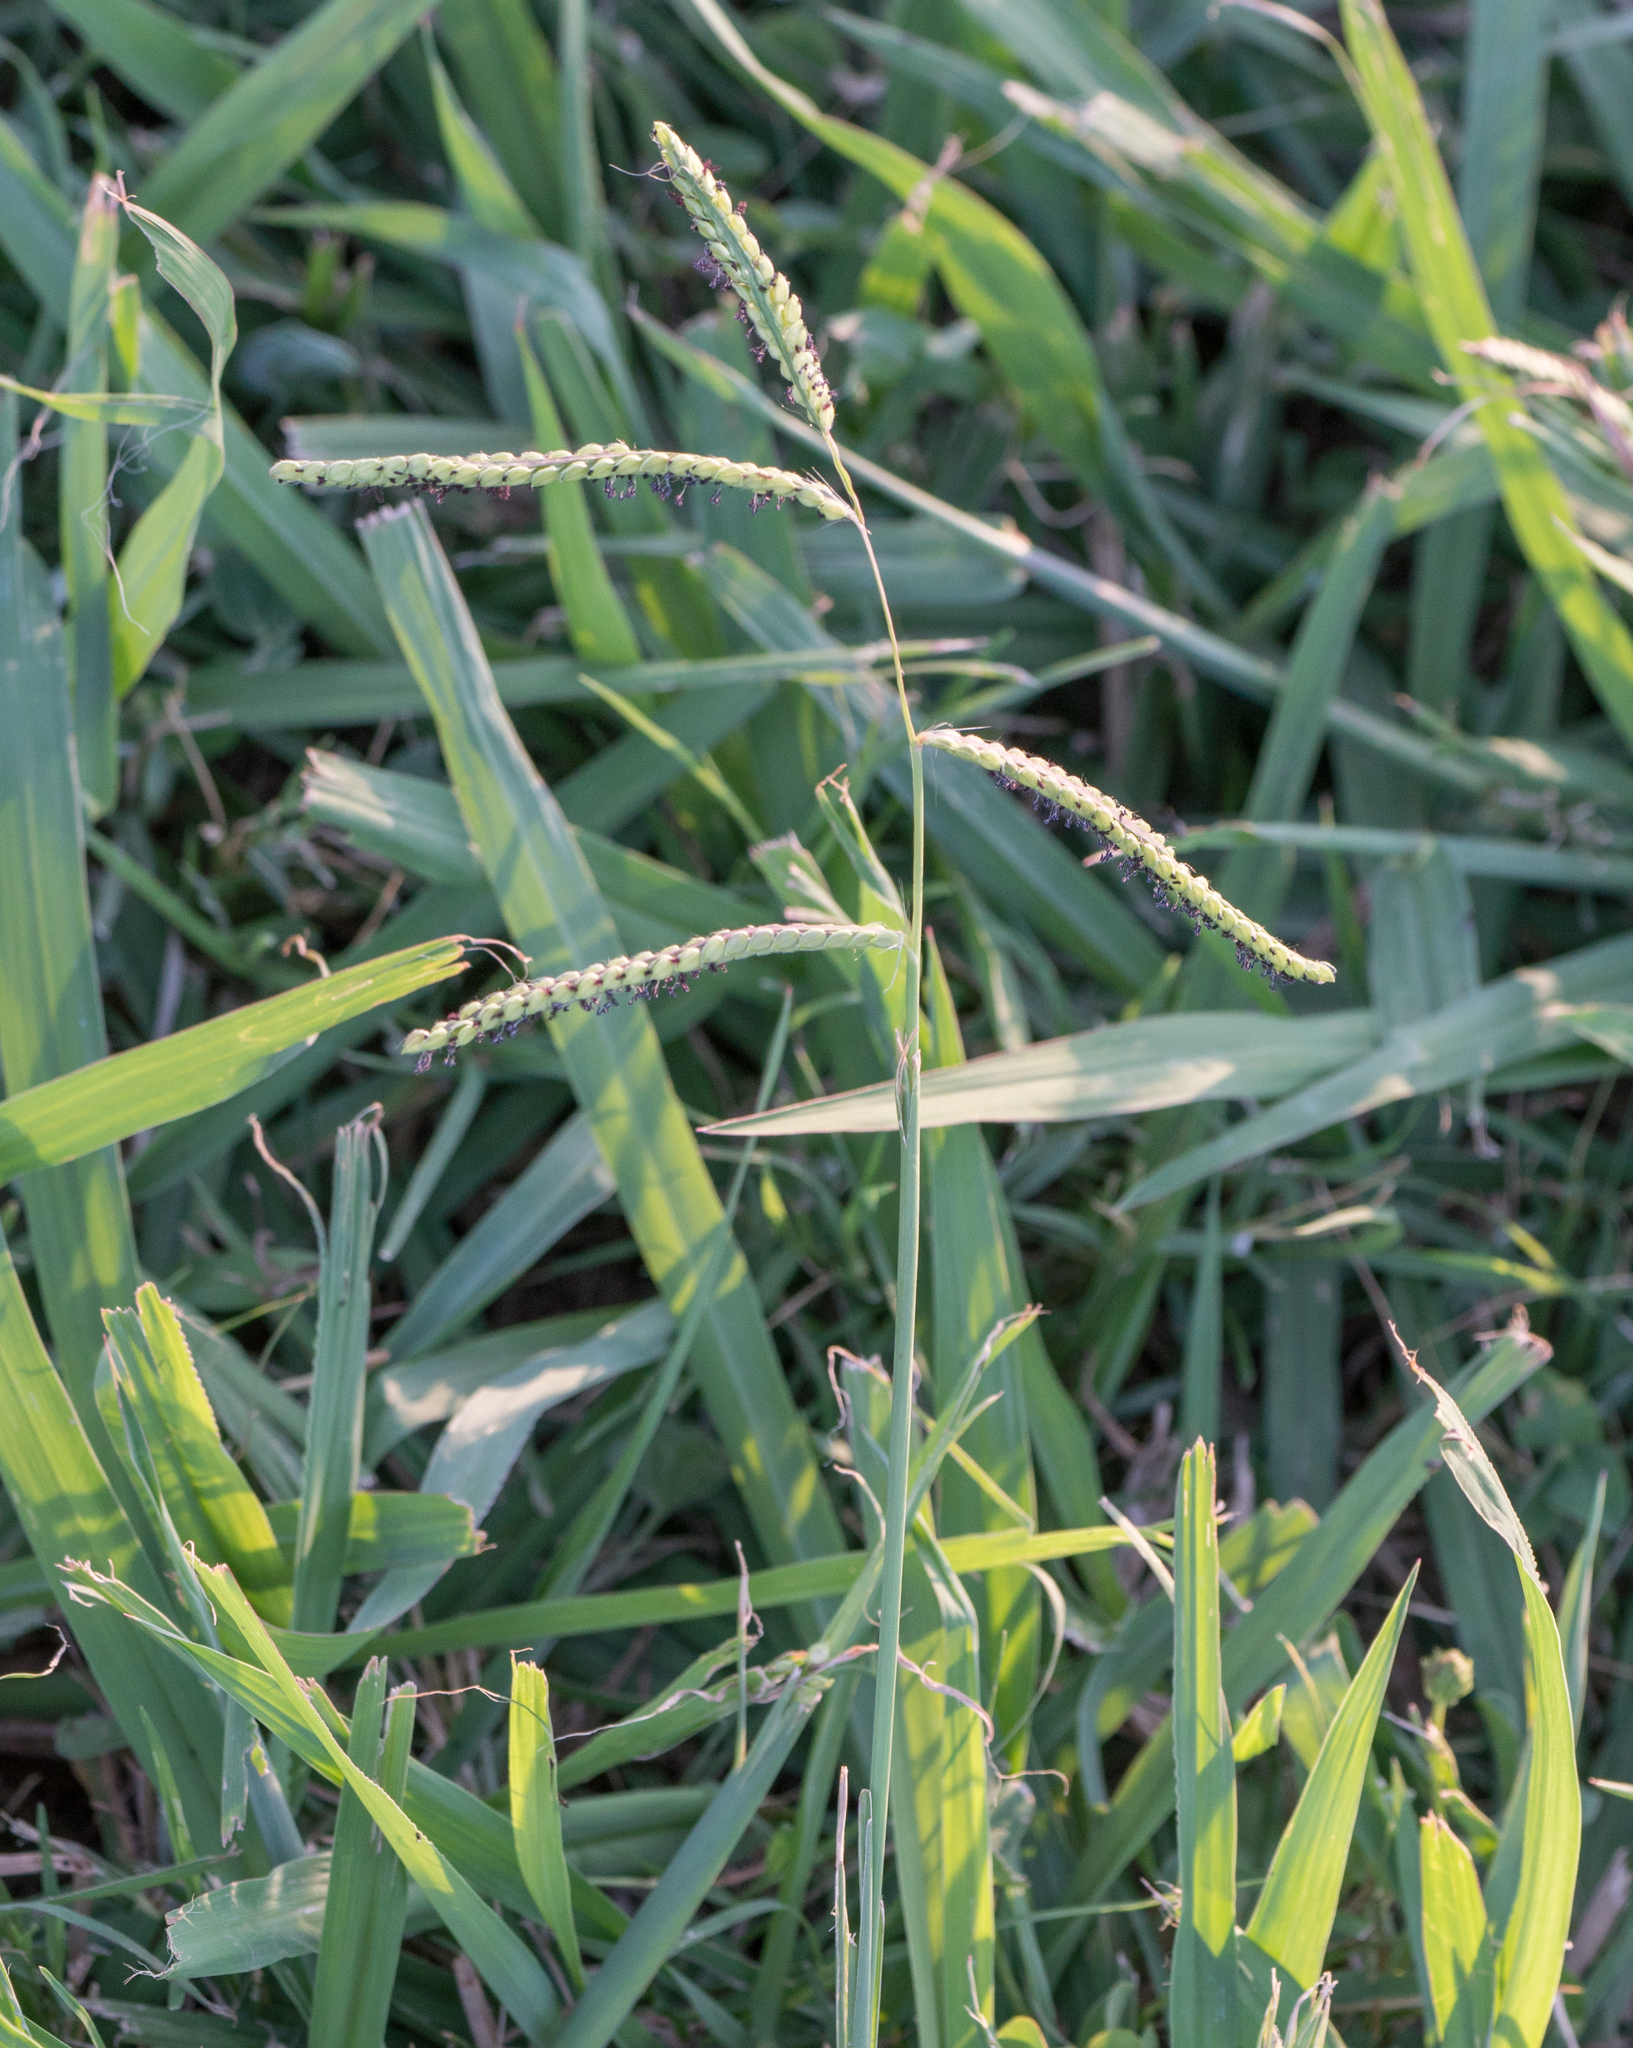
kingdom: Plantae
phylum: Tracheophyta
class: Liliopsida
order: Poales
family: Poaceae
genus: Paspalum
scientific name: Paspalum dilatatum
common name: Dallisgrass
